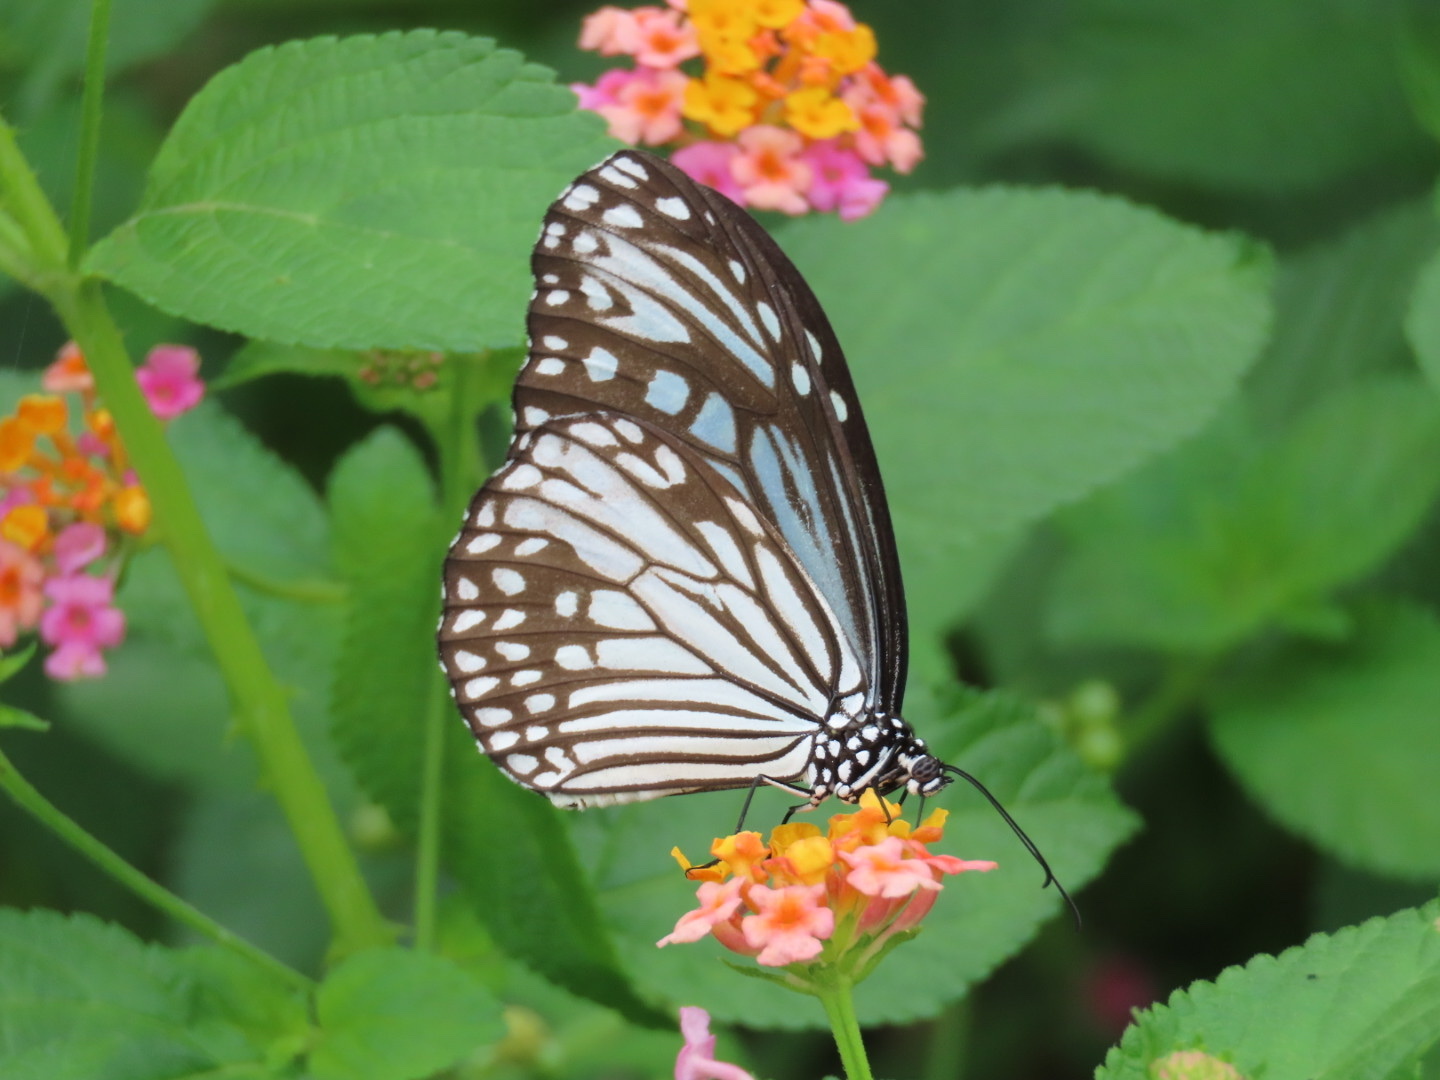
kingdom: Animalia
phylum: Arthropoda
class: Insecta
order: Lepidoptera
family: Nymphalidae
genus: Parantica
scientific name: Parantica aglea
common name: Glassy tiger
